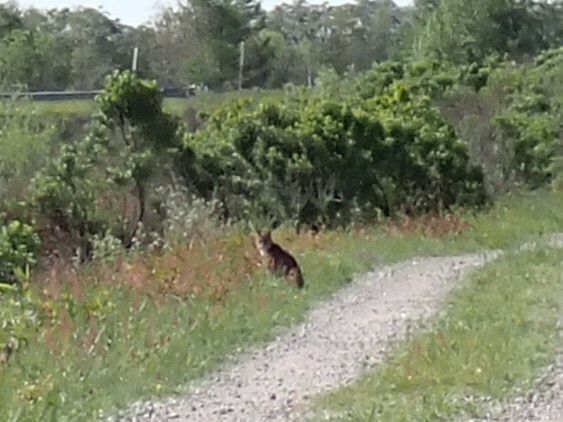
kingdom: Animalia
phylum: Chordata
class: Mammalia
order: Carnivora
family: Felidae
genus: Lynx
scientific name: Lynx rufus
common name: Bobcat
